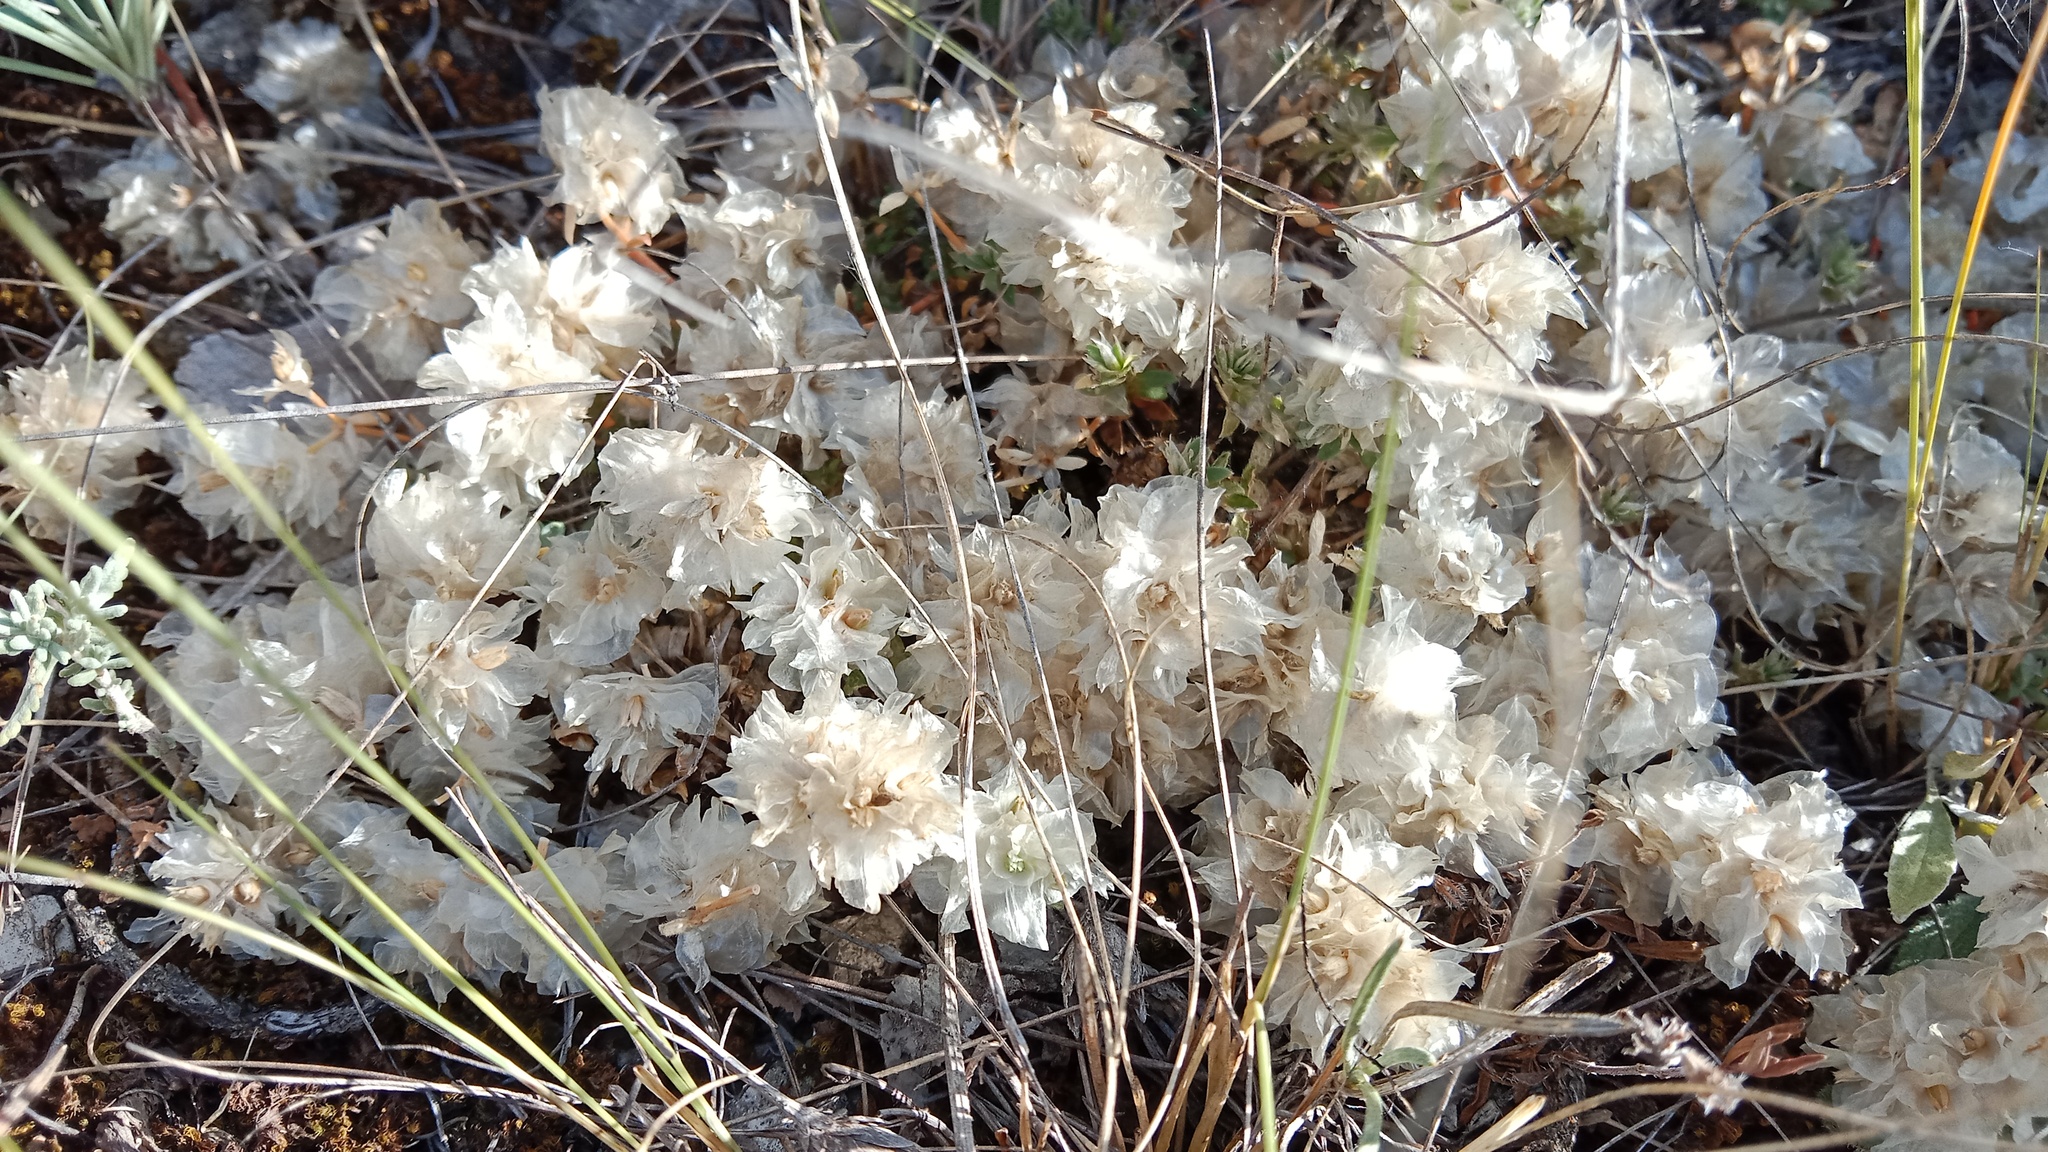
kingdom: Plantae
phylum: Tracheophyta
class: Magnoliopsida
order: Caryophyllales
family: Caryophyllaceae
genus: Paronychia
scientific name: Paronychia cephalotes
